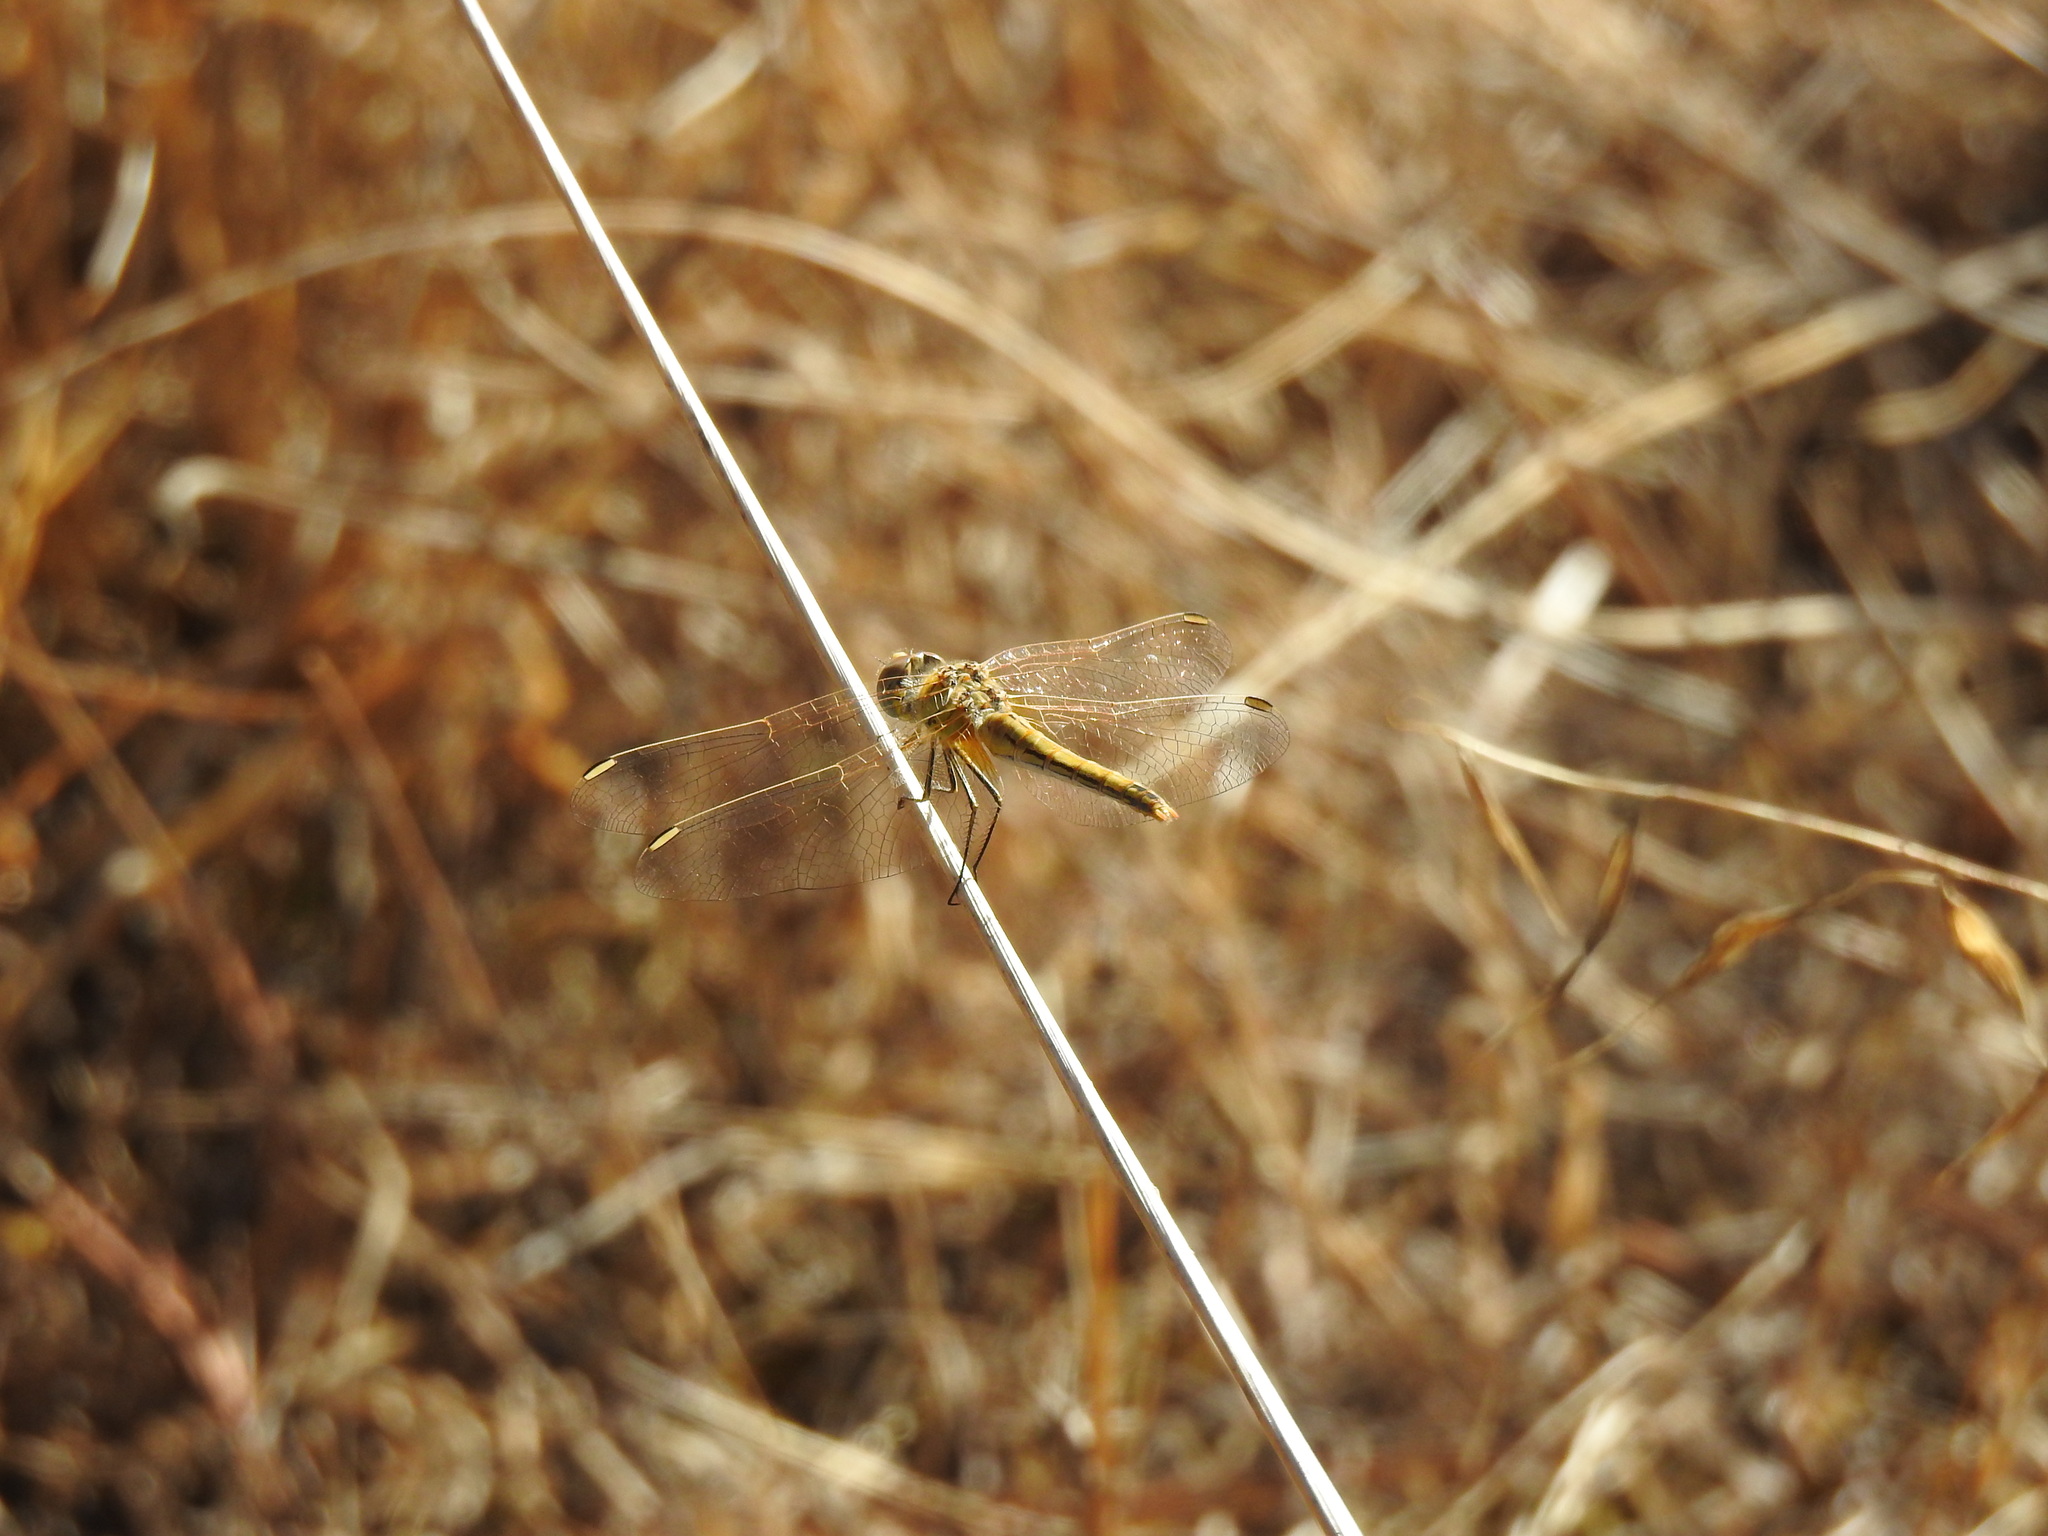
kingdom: Animalia
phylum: Arthropoda
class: Insecta
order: Odonata
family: Libellulidae
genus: Sympetrum
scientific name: Sympetrum fonscolombii
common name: Red-veined darter
